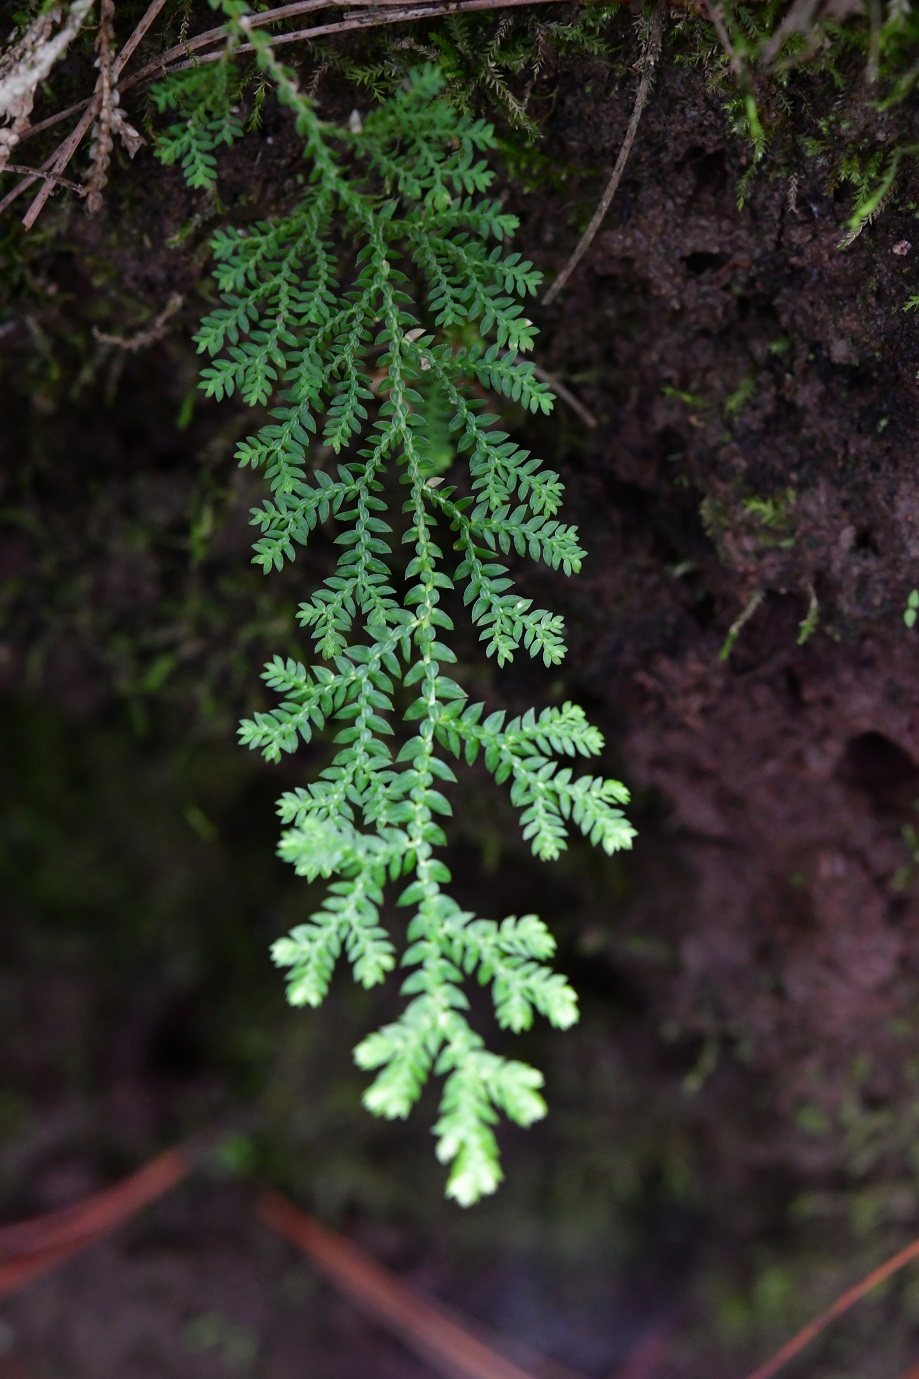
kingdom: Plantae
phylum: Tracheophyta
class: Lycopodiopsida
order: Selaginellales
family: Selaginellaceae
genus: Selaginella
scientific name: Selaginella eurynota
